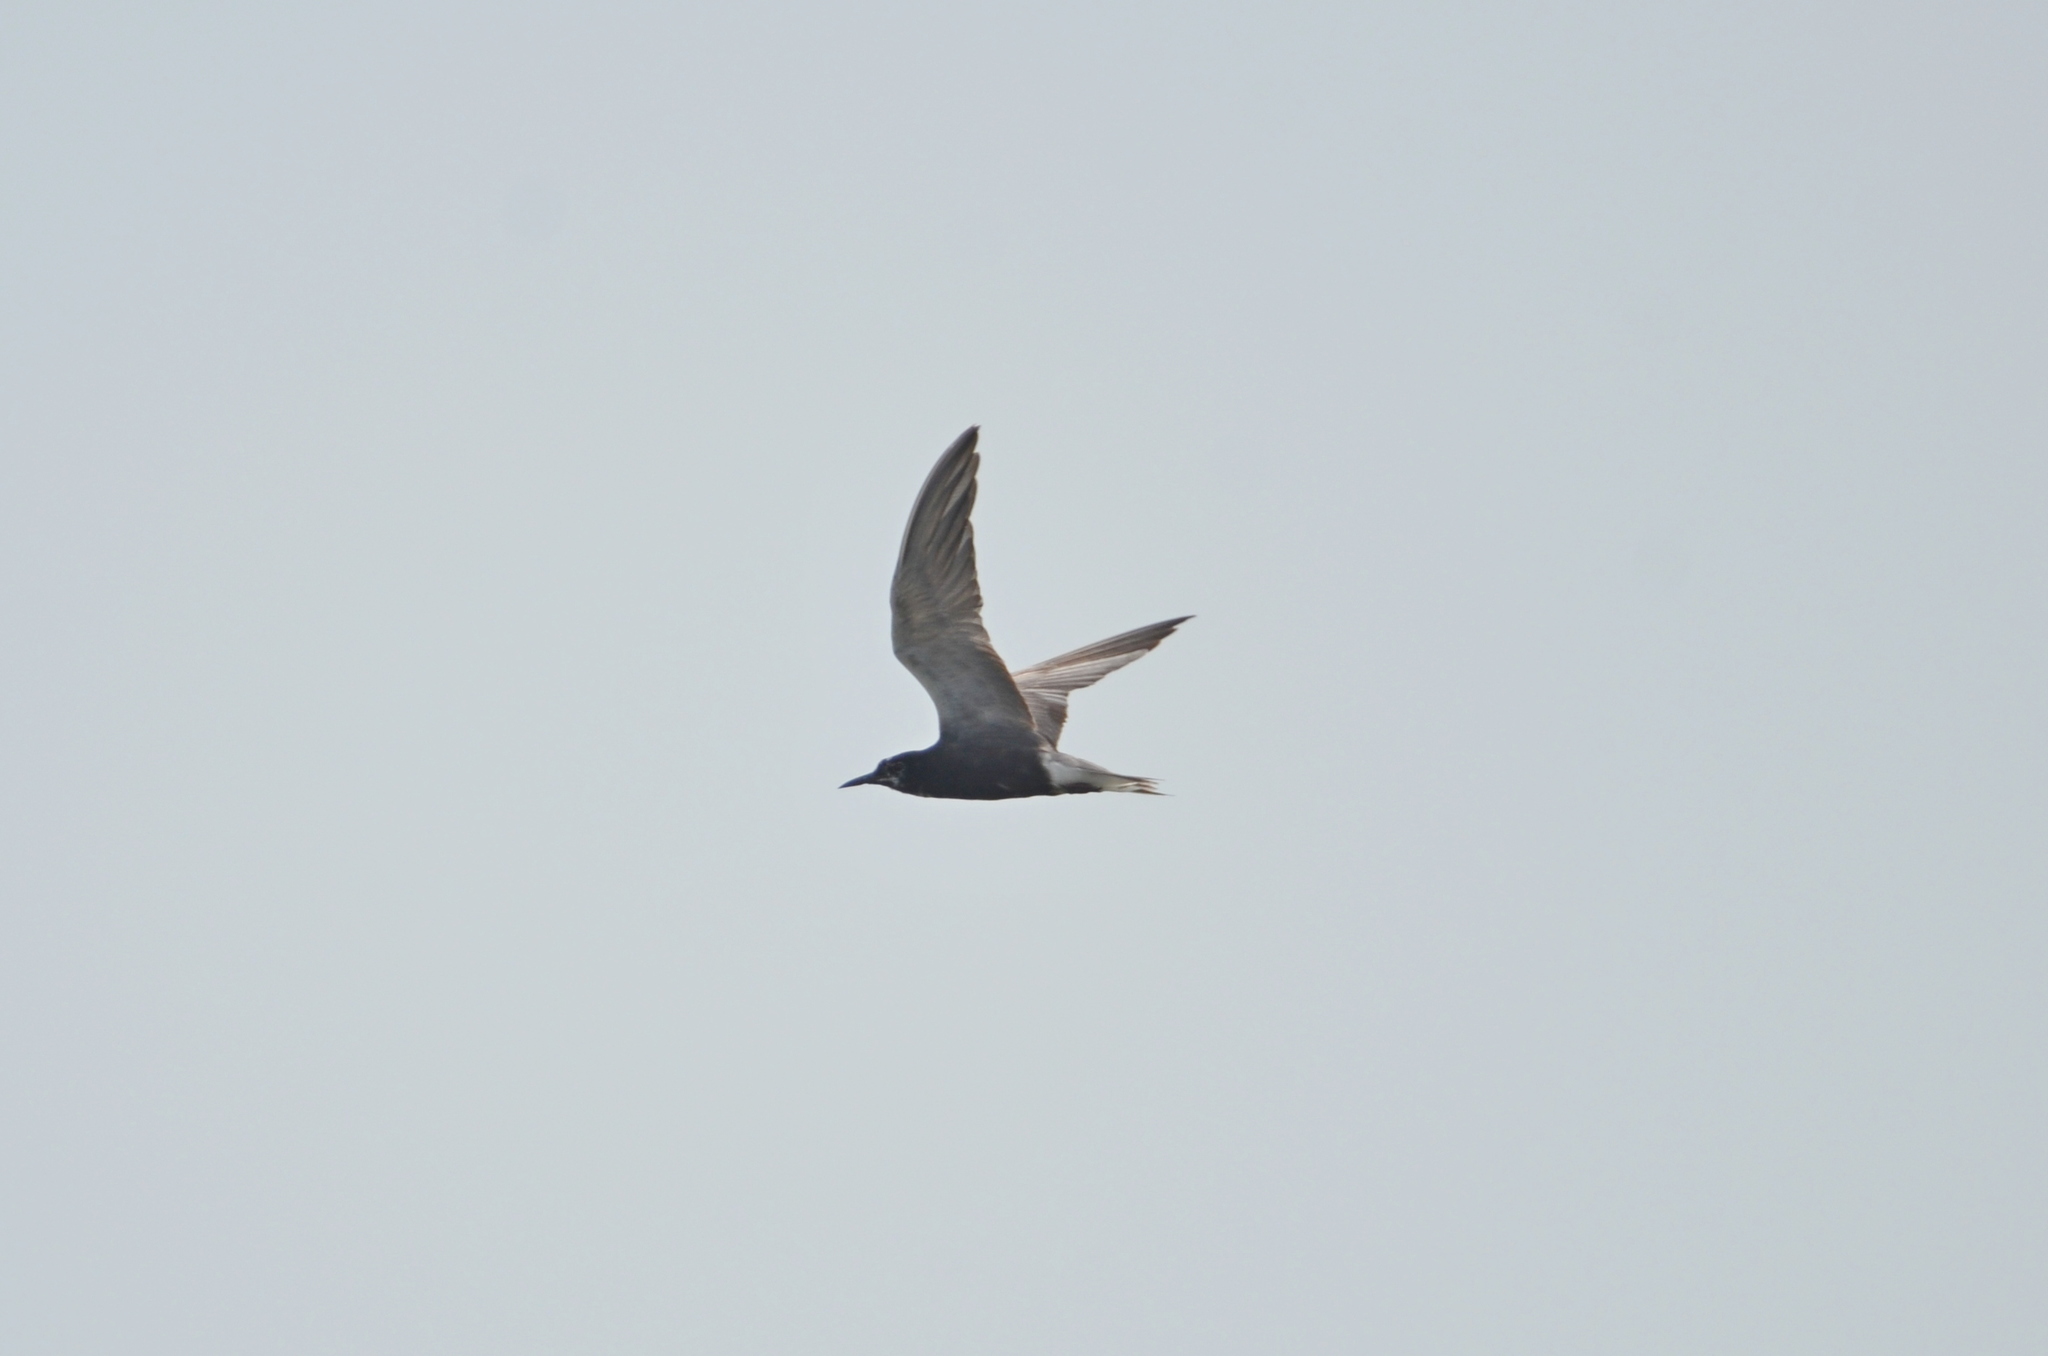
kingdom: Animalia
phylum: Chordata
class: Aves
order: Charadriiformes
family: Laridae
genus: Chlidonias
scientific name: Chlidonias niger
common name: Black tern
